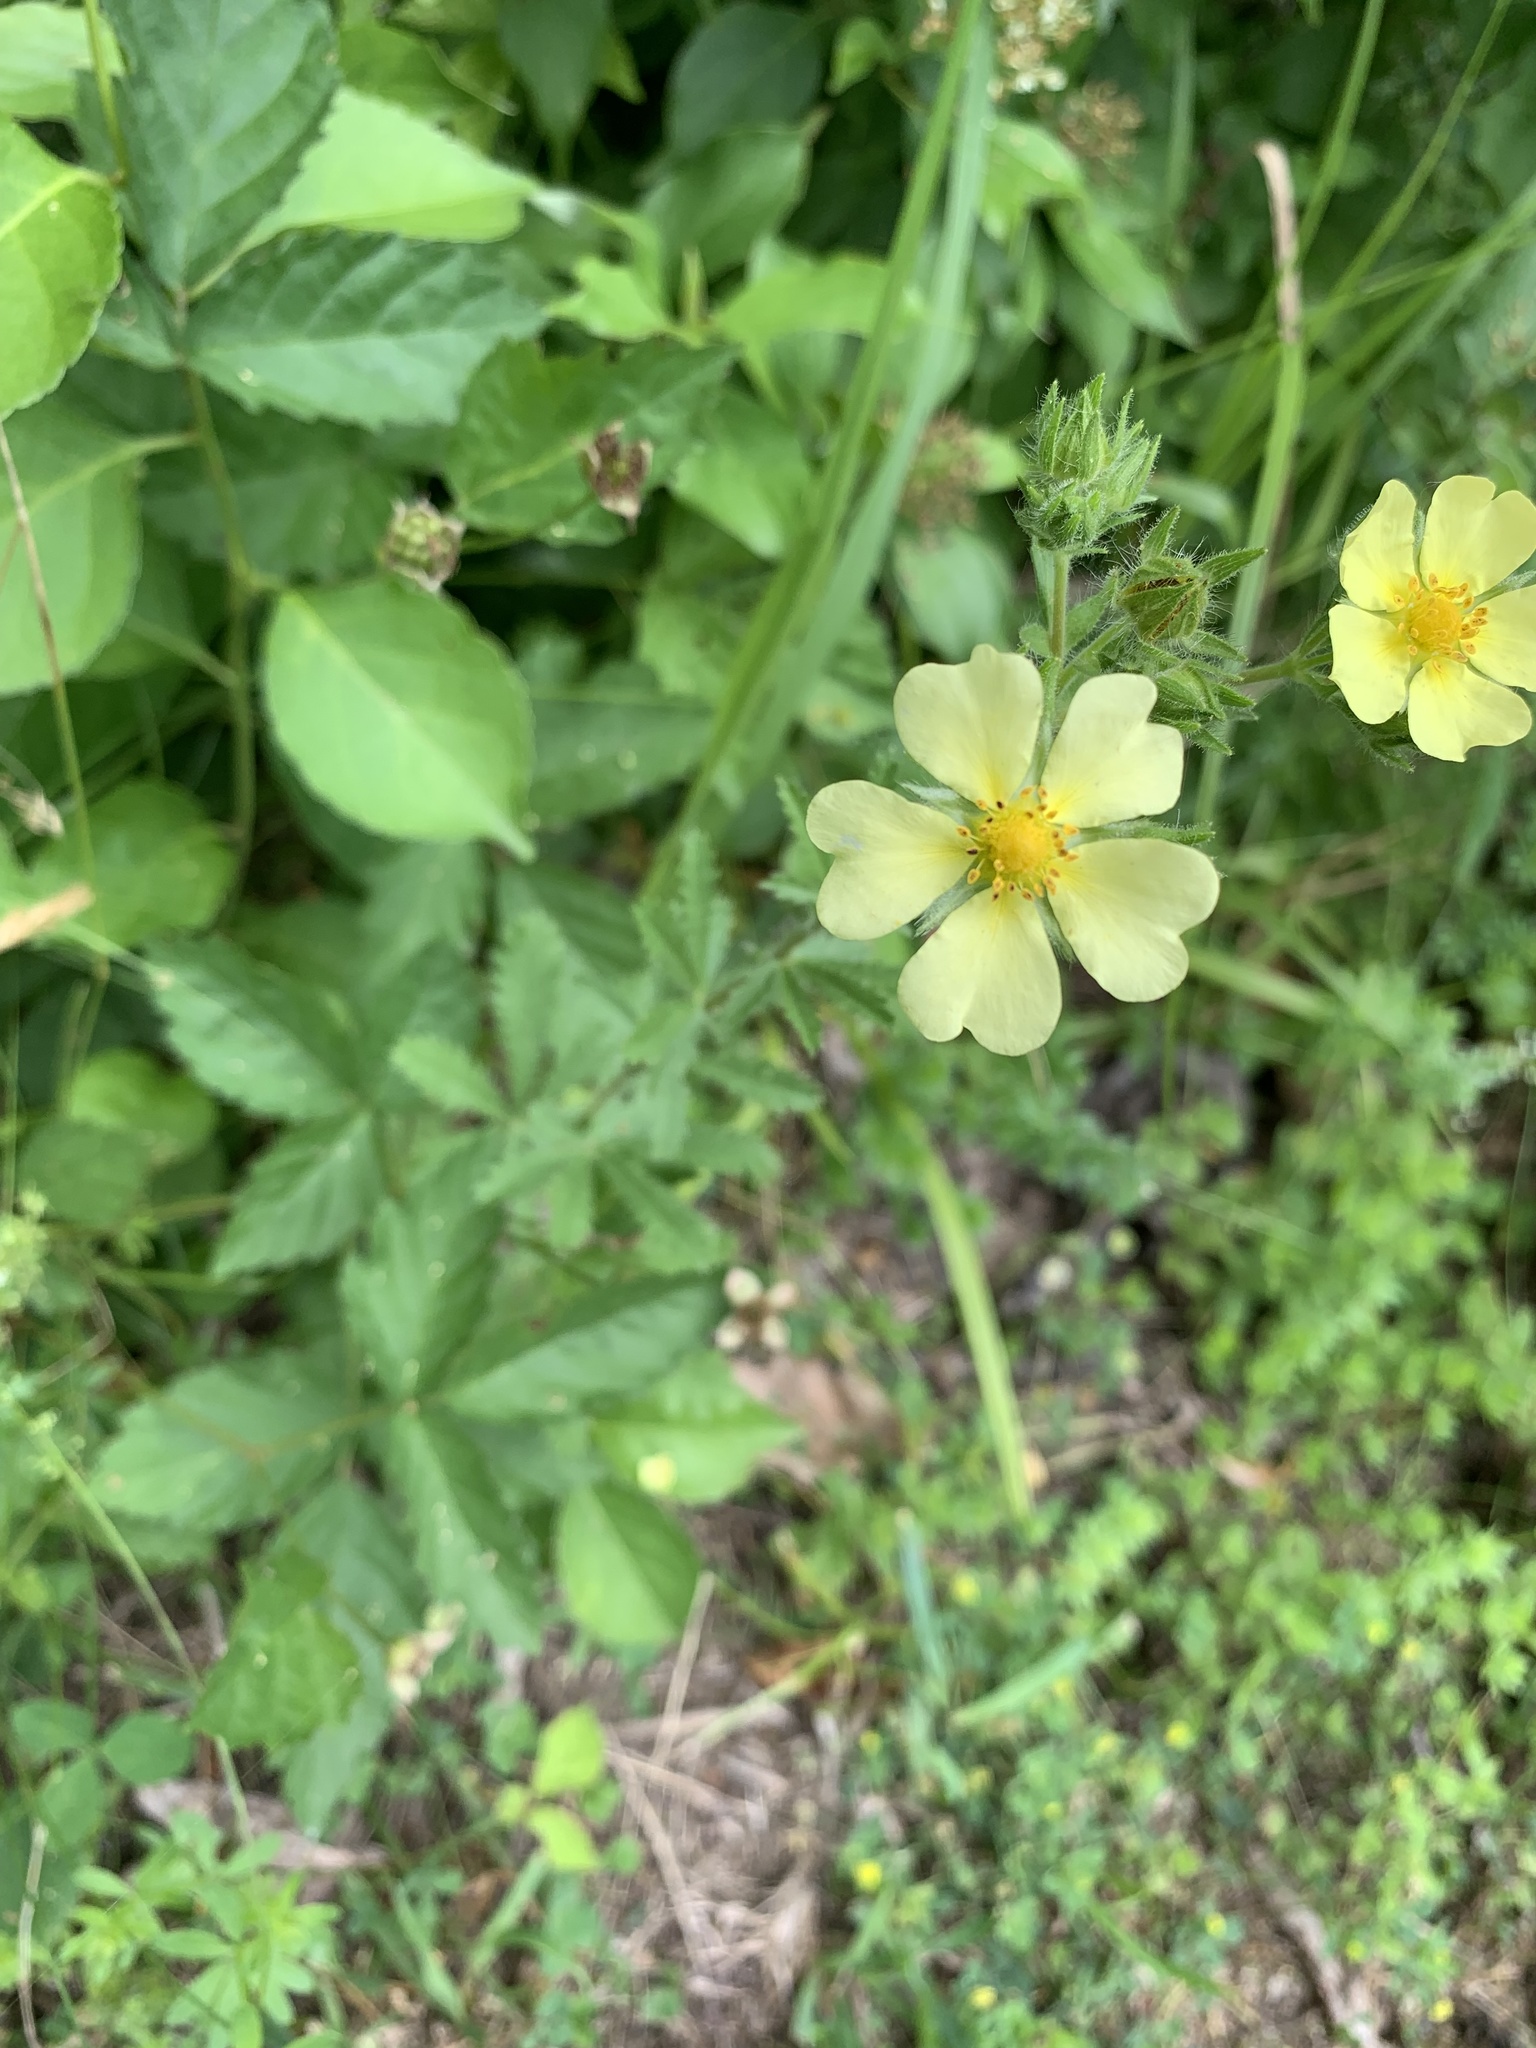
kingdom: Plantae
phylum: Tracheophyta
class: Magnoliopsida
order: Rosales
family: Rosaceae
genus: Potentilla
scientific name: Potentilla recta
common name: Sulphur cinquefoil
